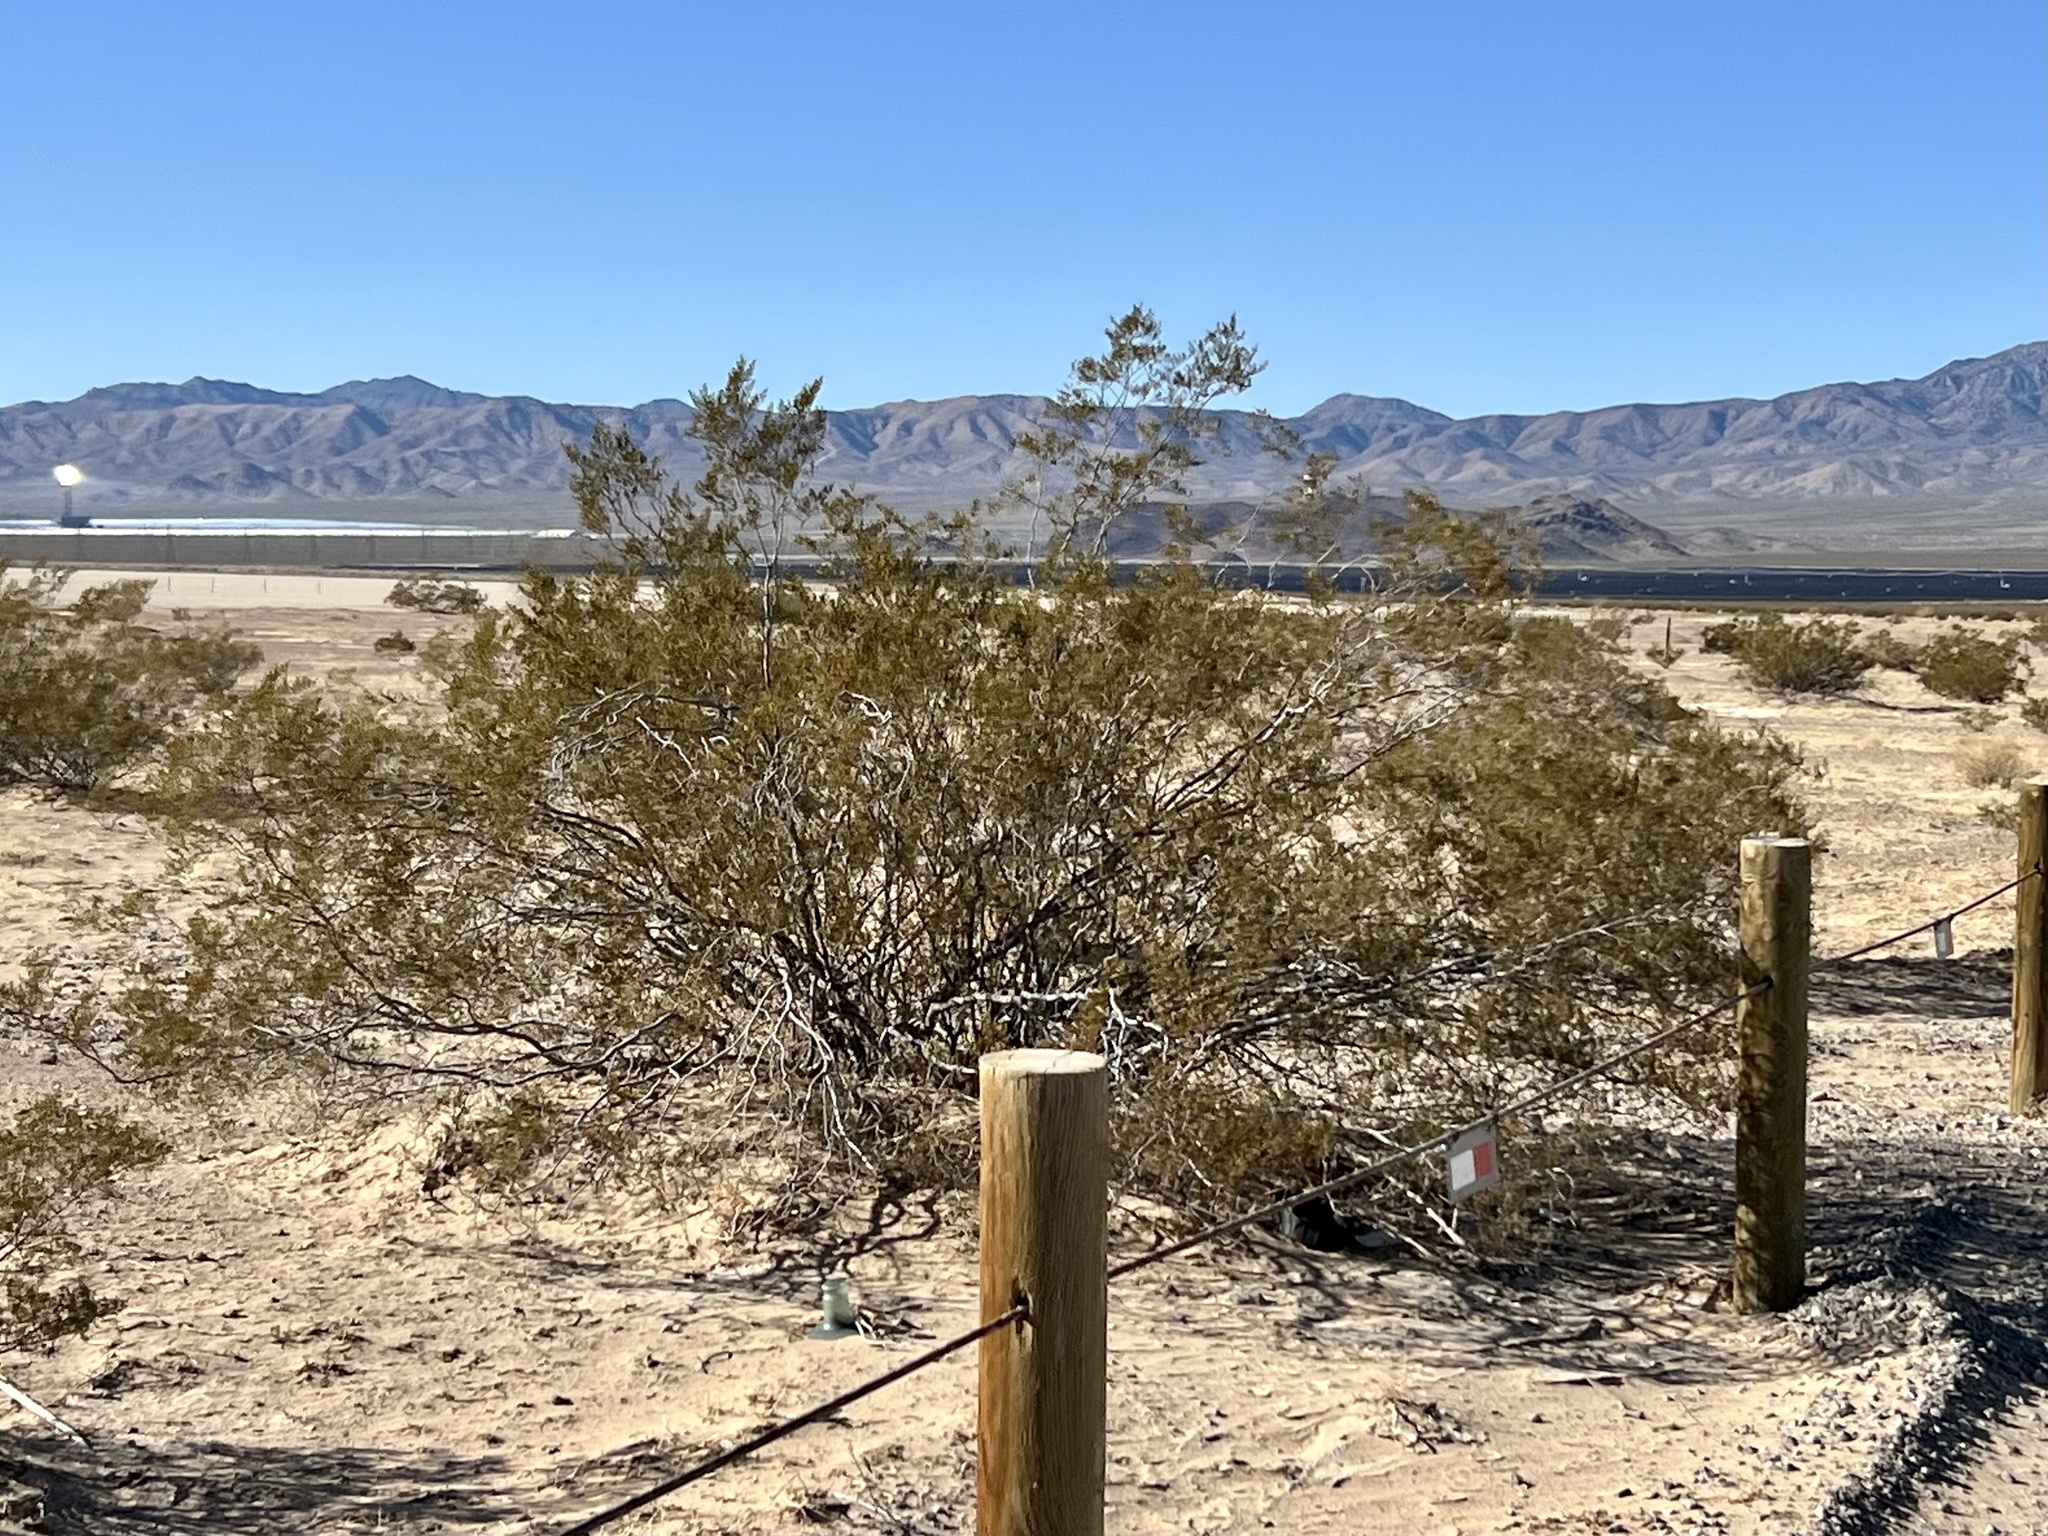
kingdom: Plantae
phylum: Tracheophyta
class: Magnoliopsida
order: Zygophyllales
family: Zygophyllaceae
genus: Larrea
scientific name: Larrea tridentata
